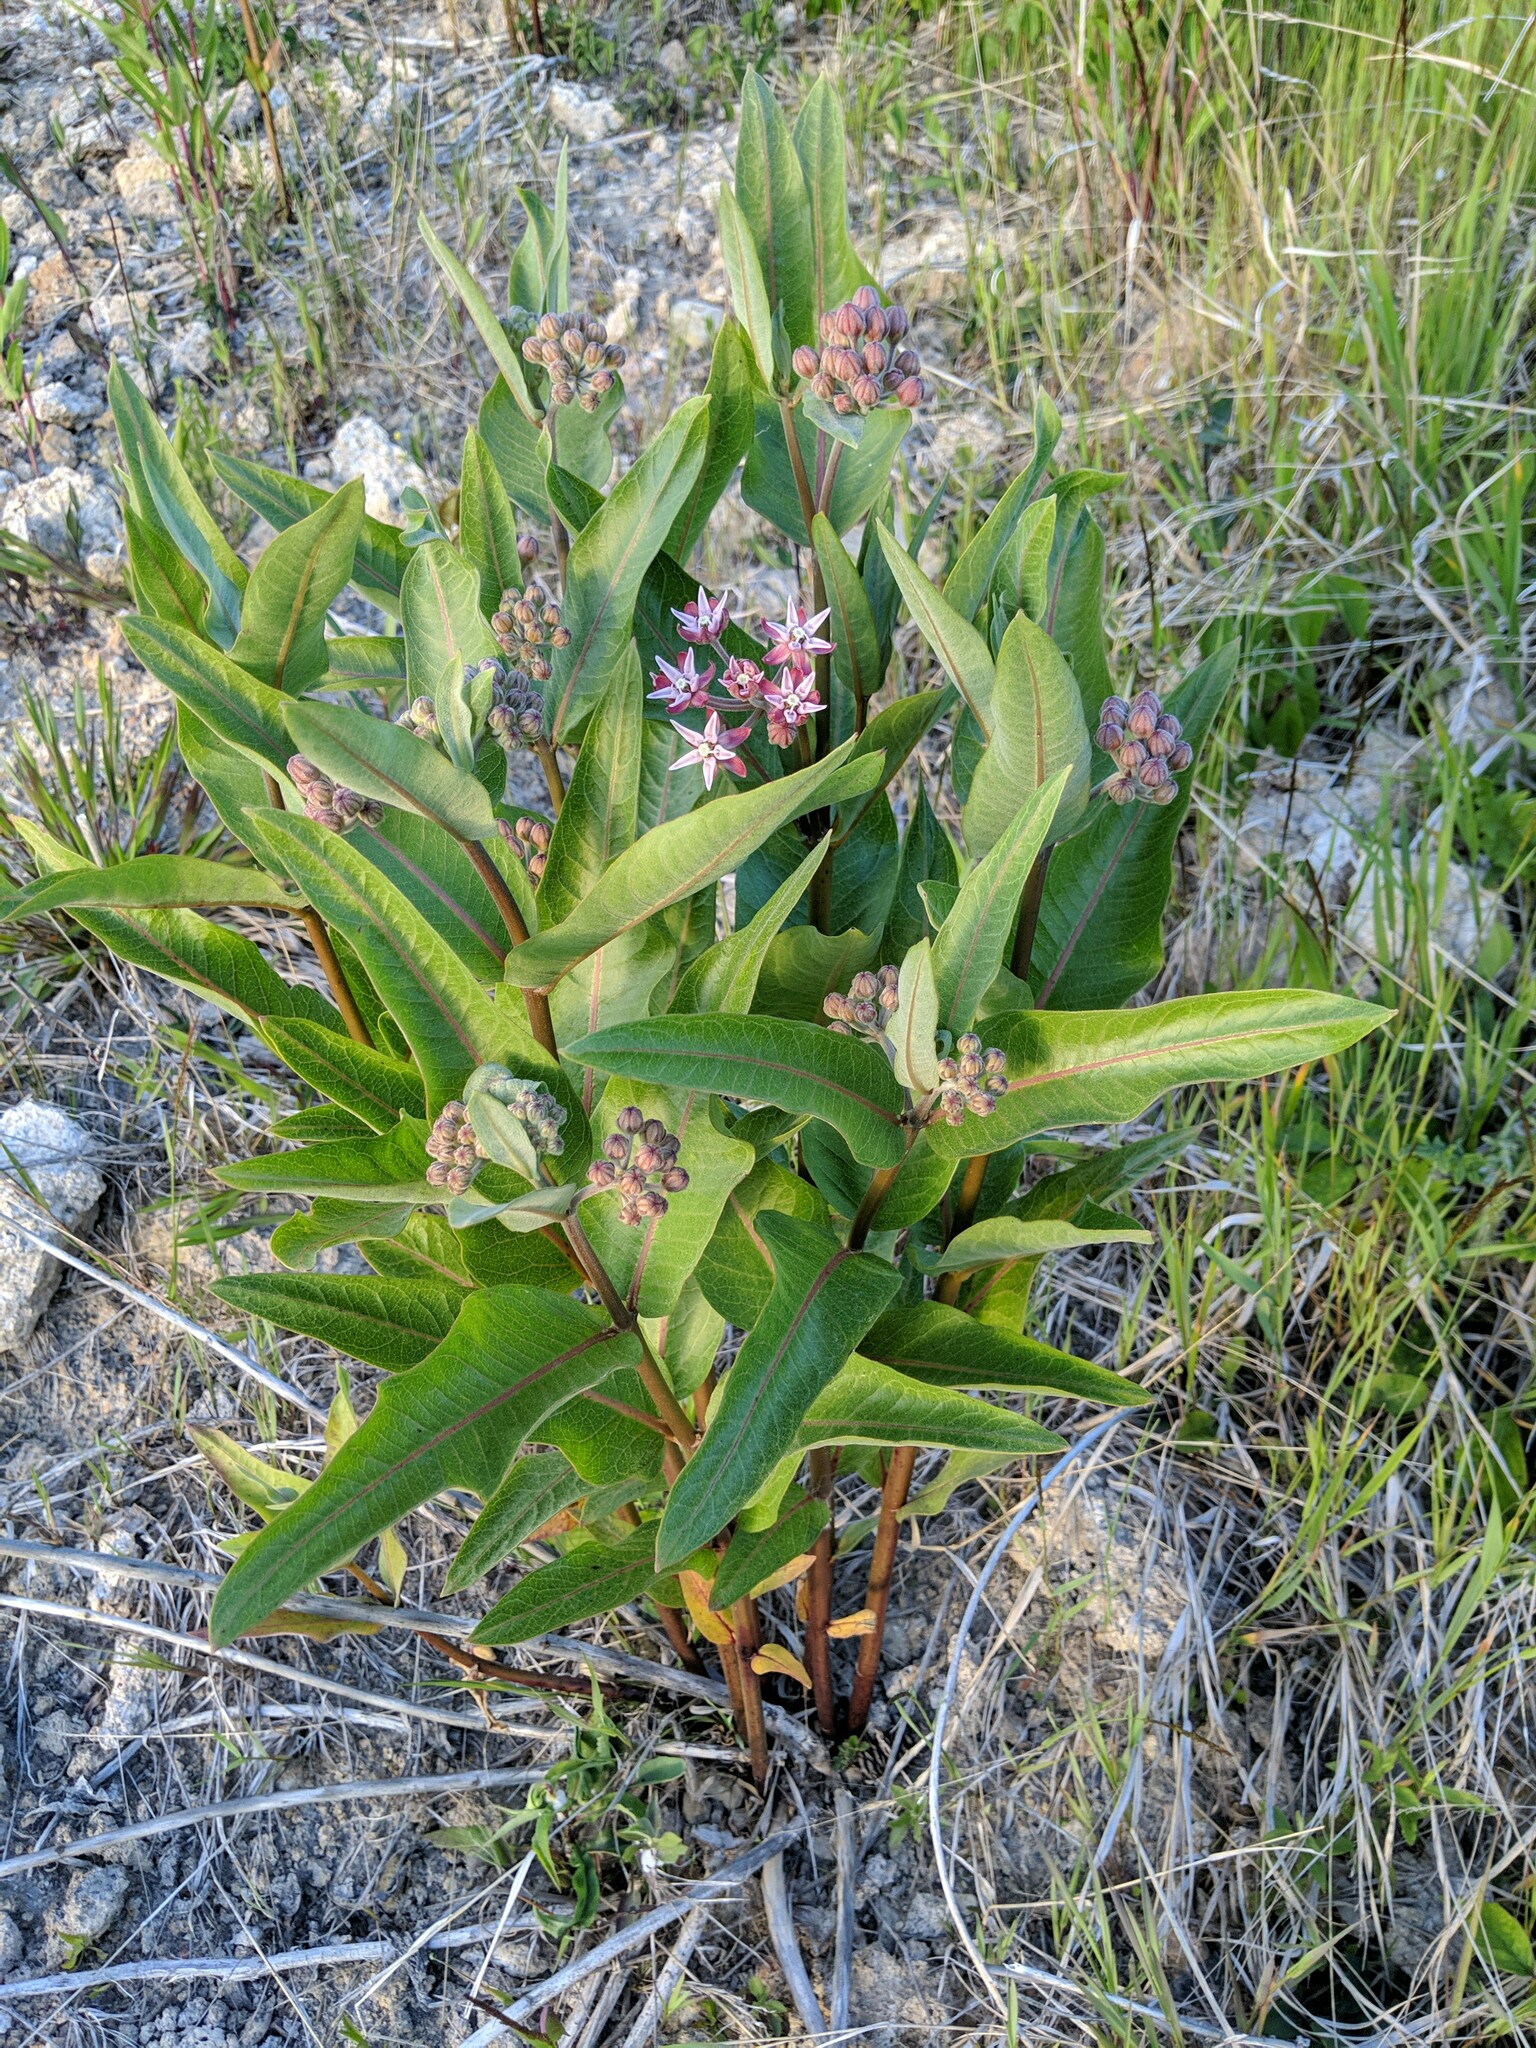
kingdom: Plantae
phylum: Tracheophyta
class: Magnoliopsida
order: Gentianales
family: Apocynaceae
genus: Asclepias
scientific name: Asclepias speciosa
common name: Showy milkweed
